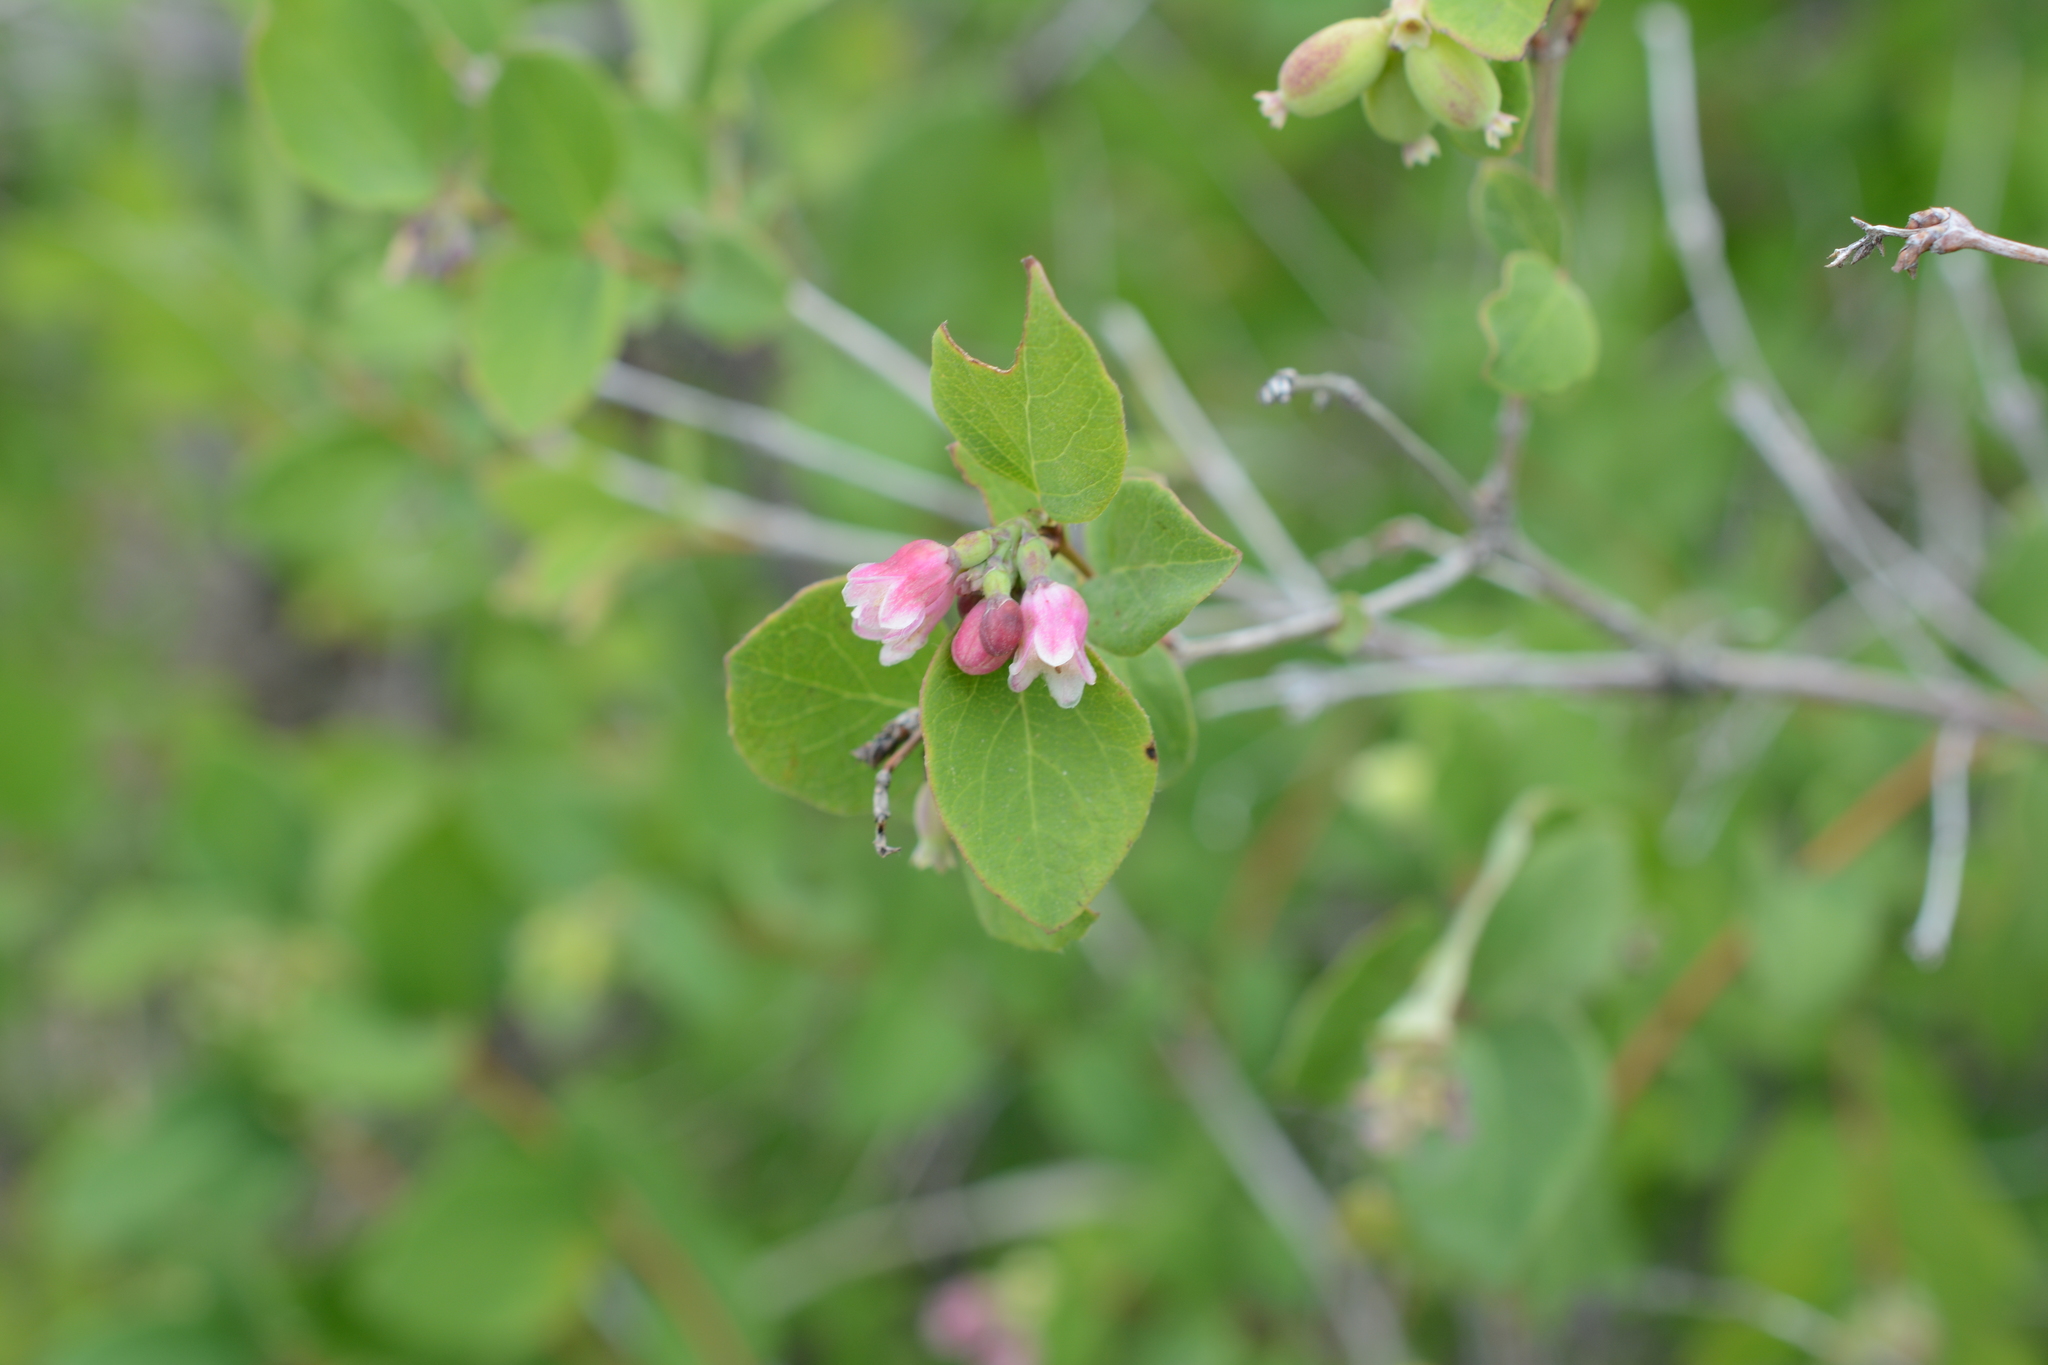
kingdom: Plantae
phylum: Tracheophyta
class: Magnoliopsida
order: Dipsacales
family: Caprifoliaceae
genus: Symphoricarpos
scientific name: Symphoricarpos albus
